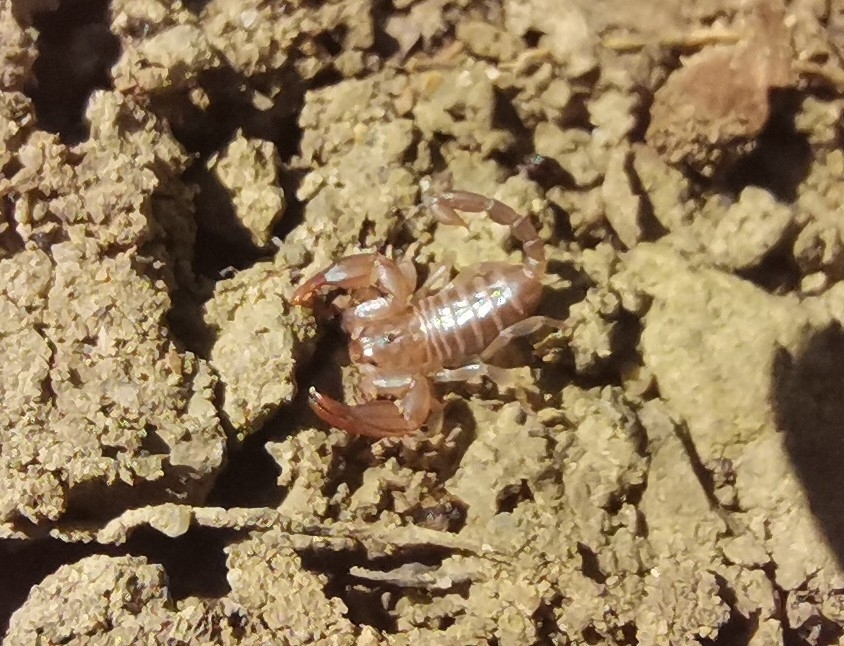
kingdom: Animalia
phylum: Arthropoda
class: Arachnida
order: Scorpiones
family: Euscorpiidae
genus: Euscorpius
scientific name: Euscorpius garganicus
